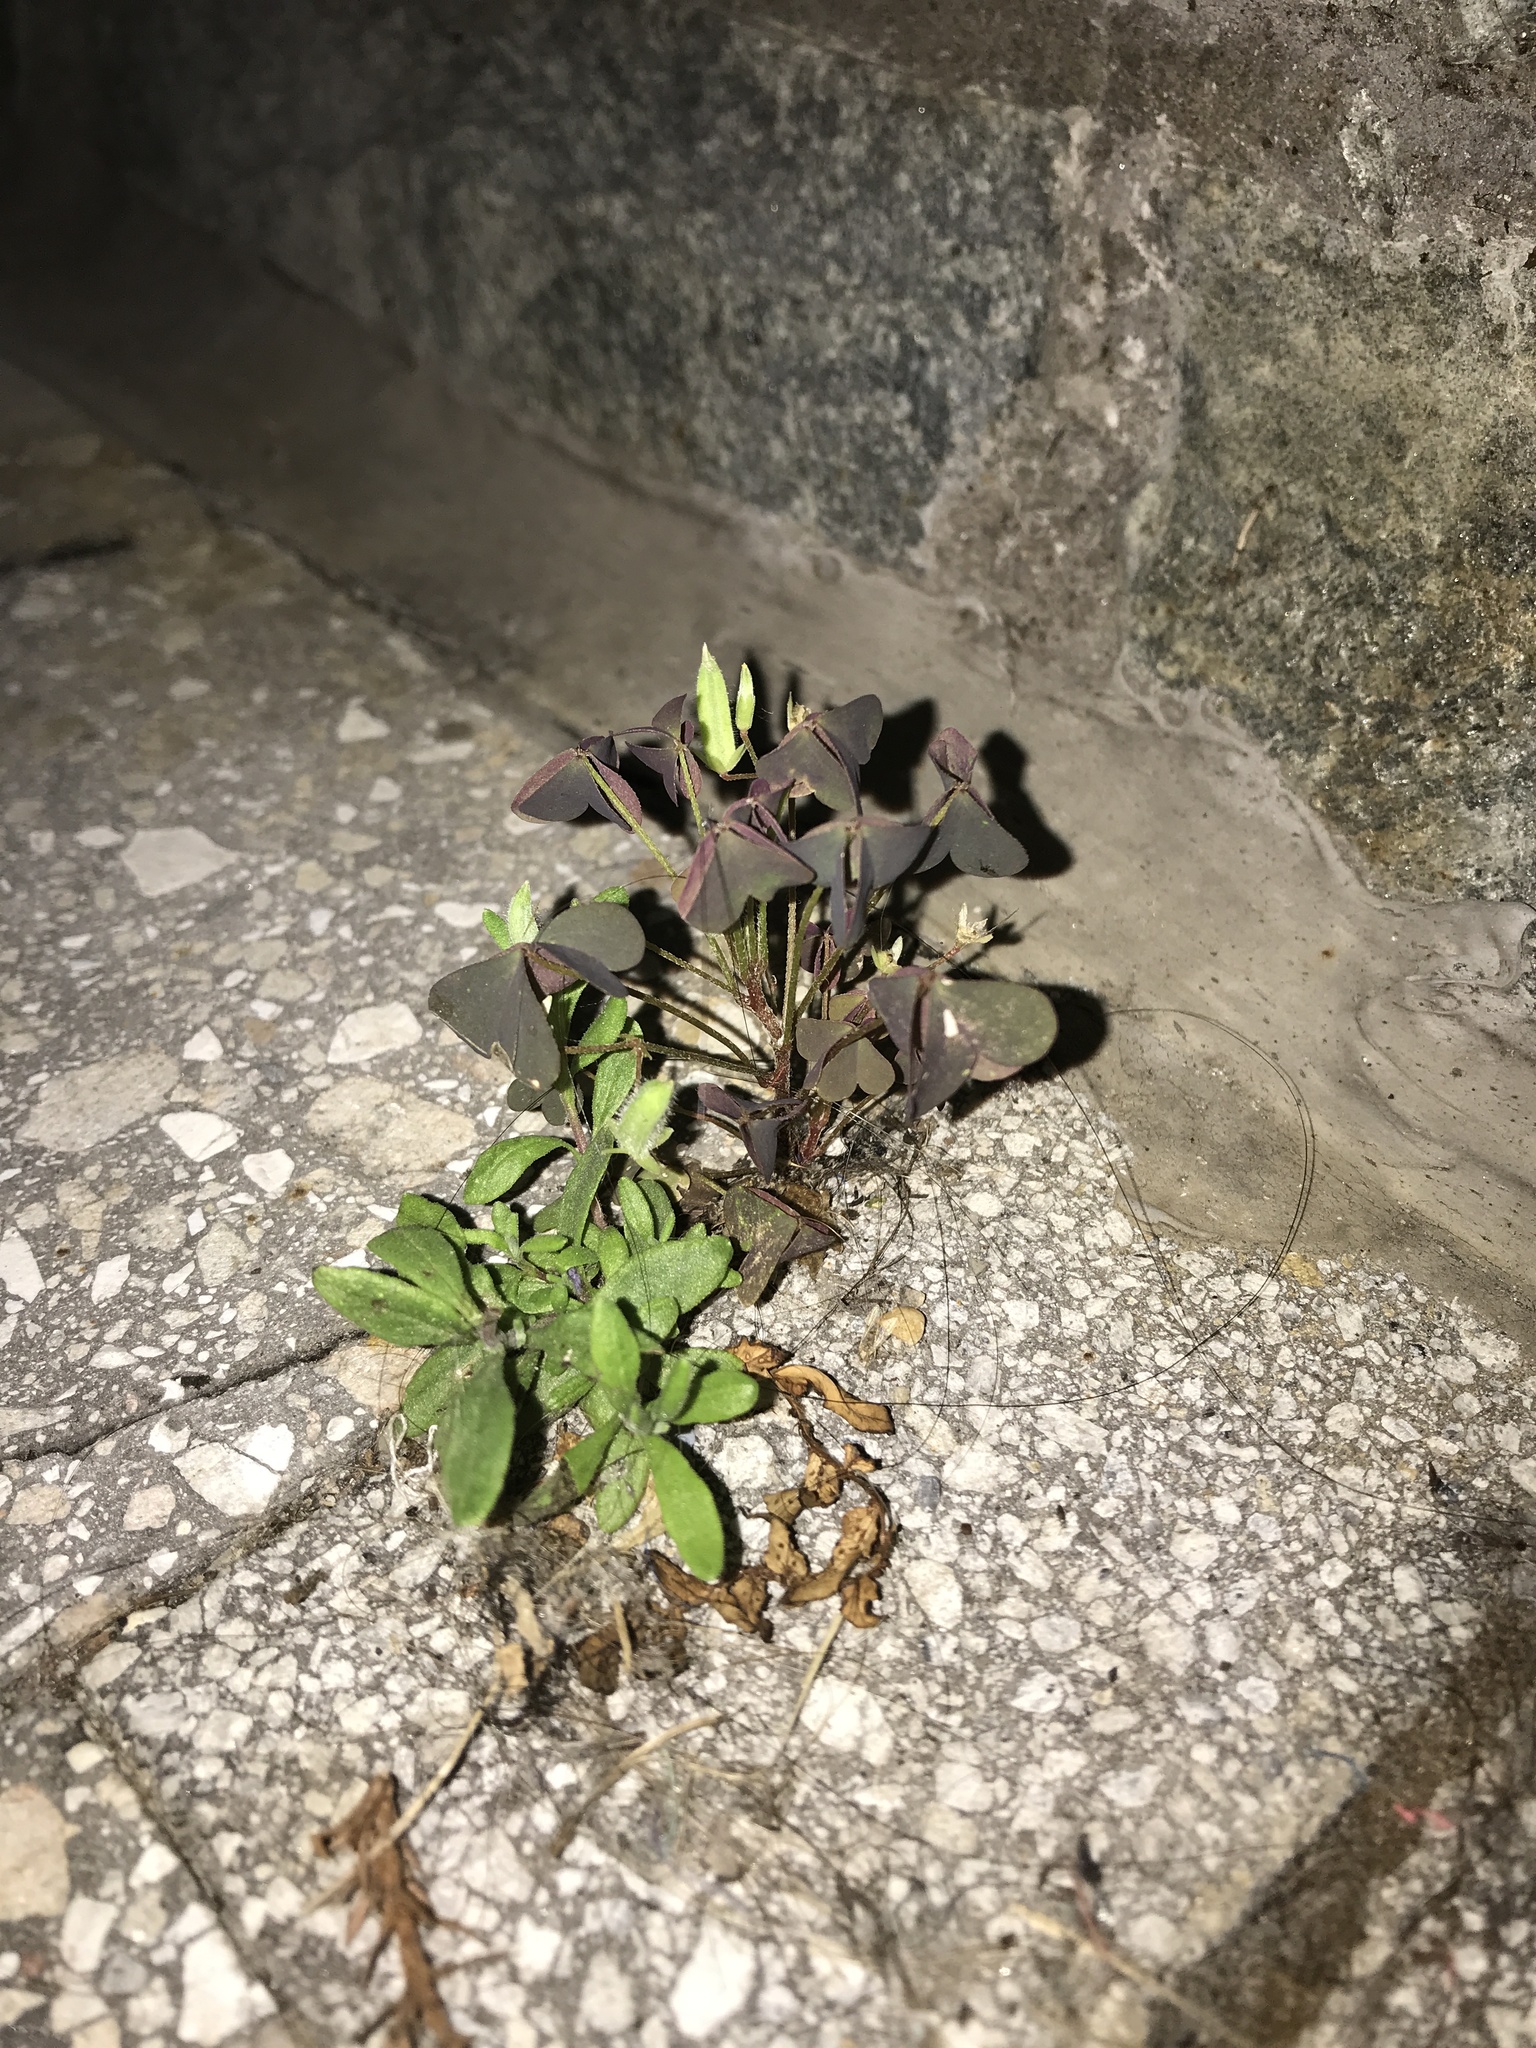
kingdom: Plantae
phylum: Tracheophyta
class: Magnoliopsida
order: Oxalidales
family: Oxalidaceae
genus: Oxalis
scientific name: Oxalis corniculata
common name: Procumbent yellow-sorrel
